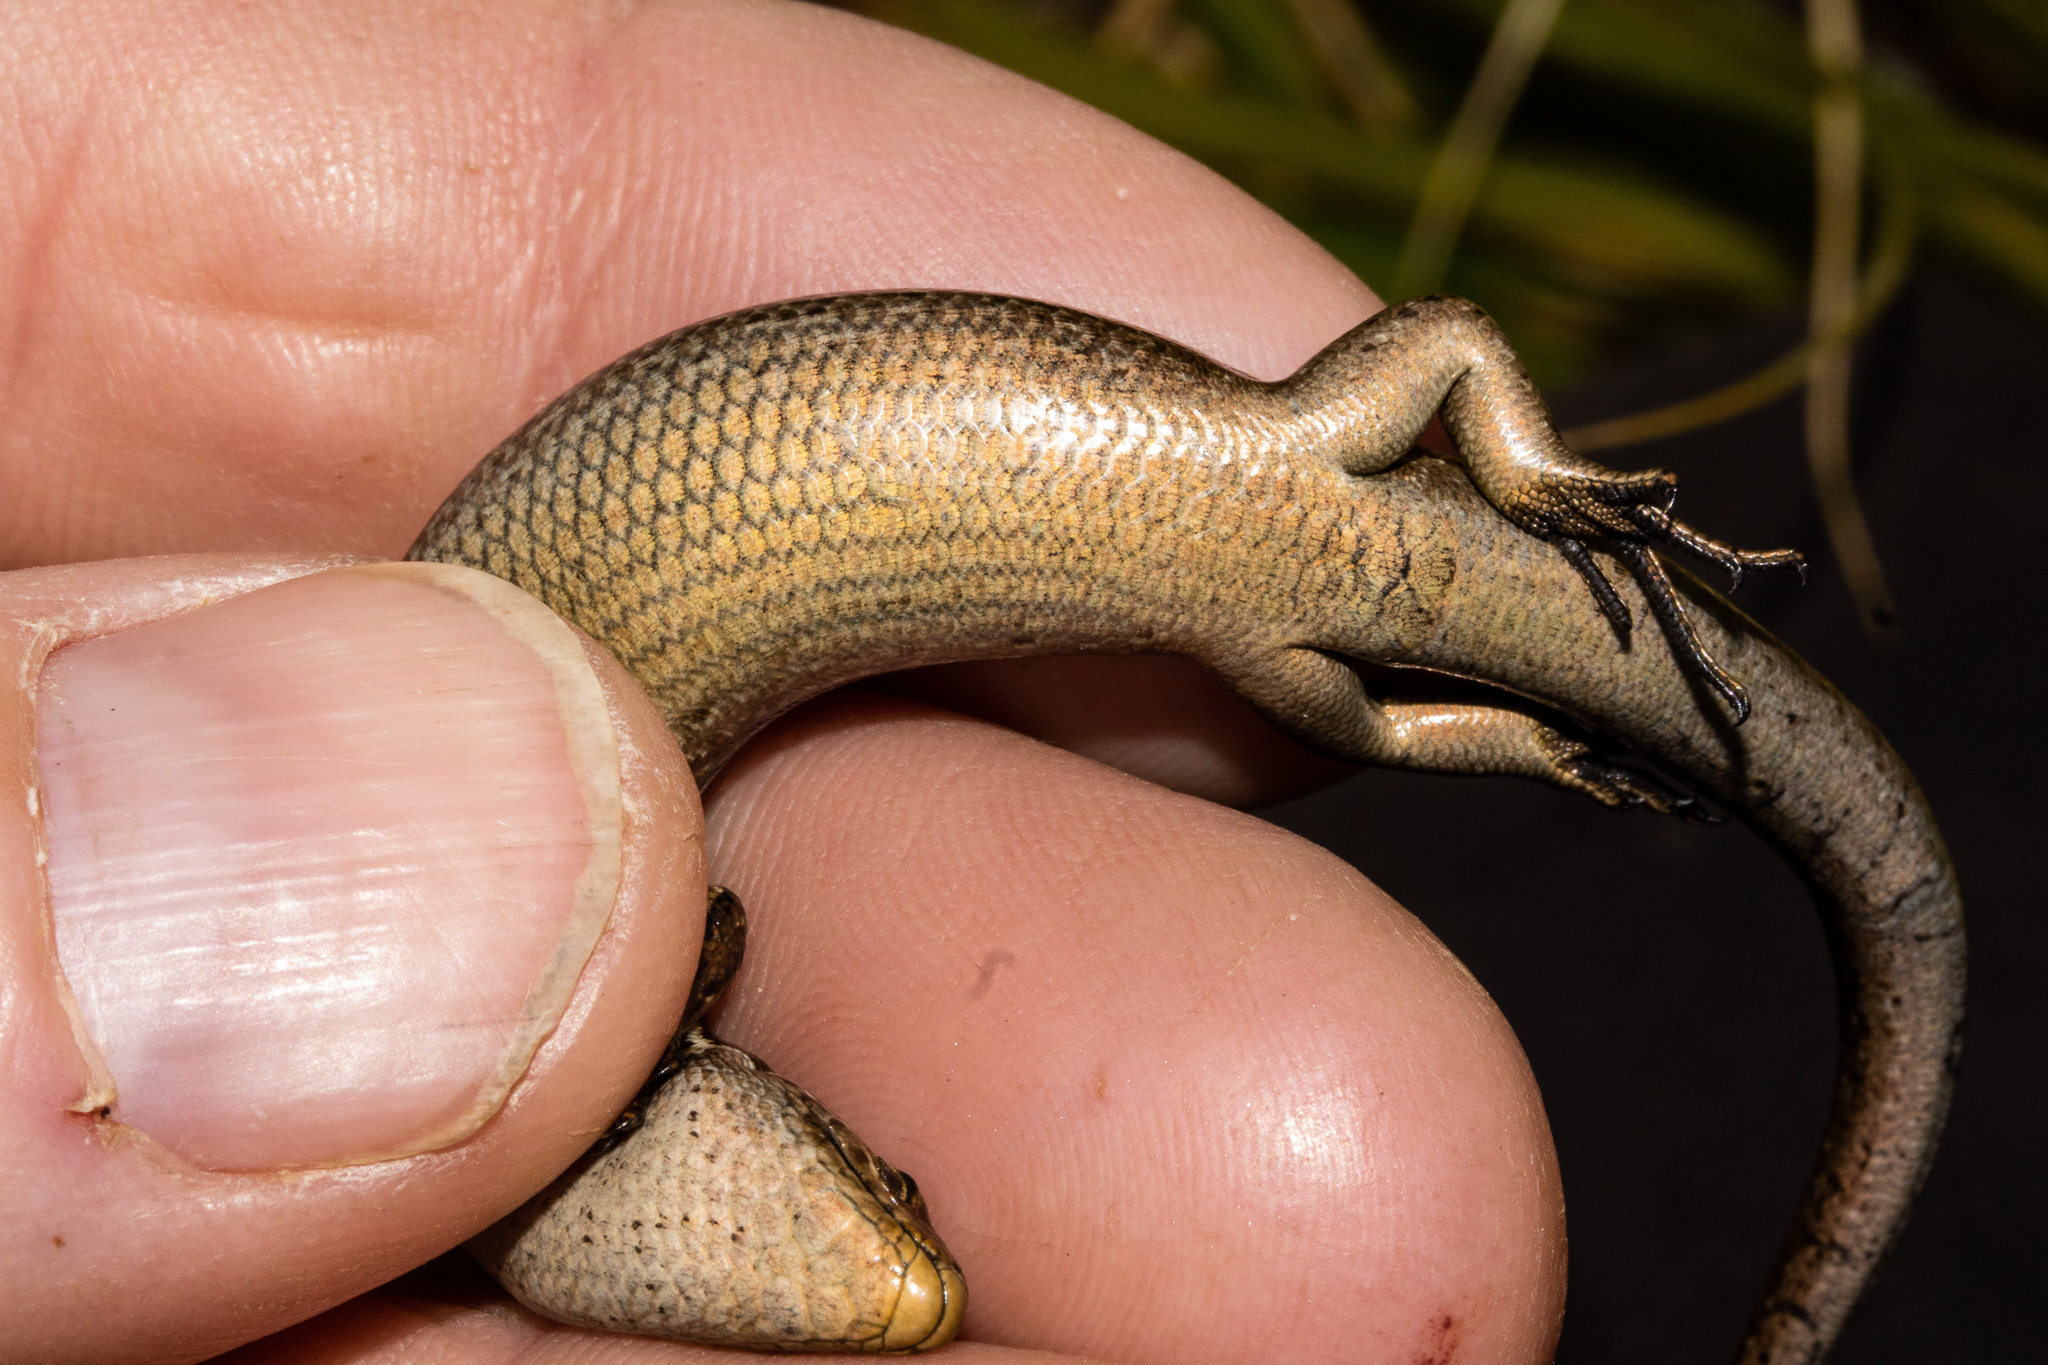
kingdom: Animalia
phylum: Chordata
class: Squamata
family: Scincidae
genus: Oligosoma
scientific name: Oligosoma repens
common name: Eyres skink
